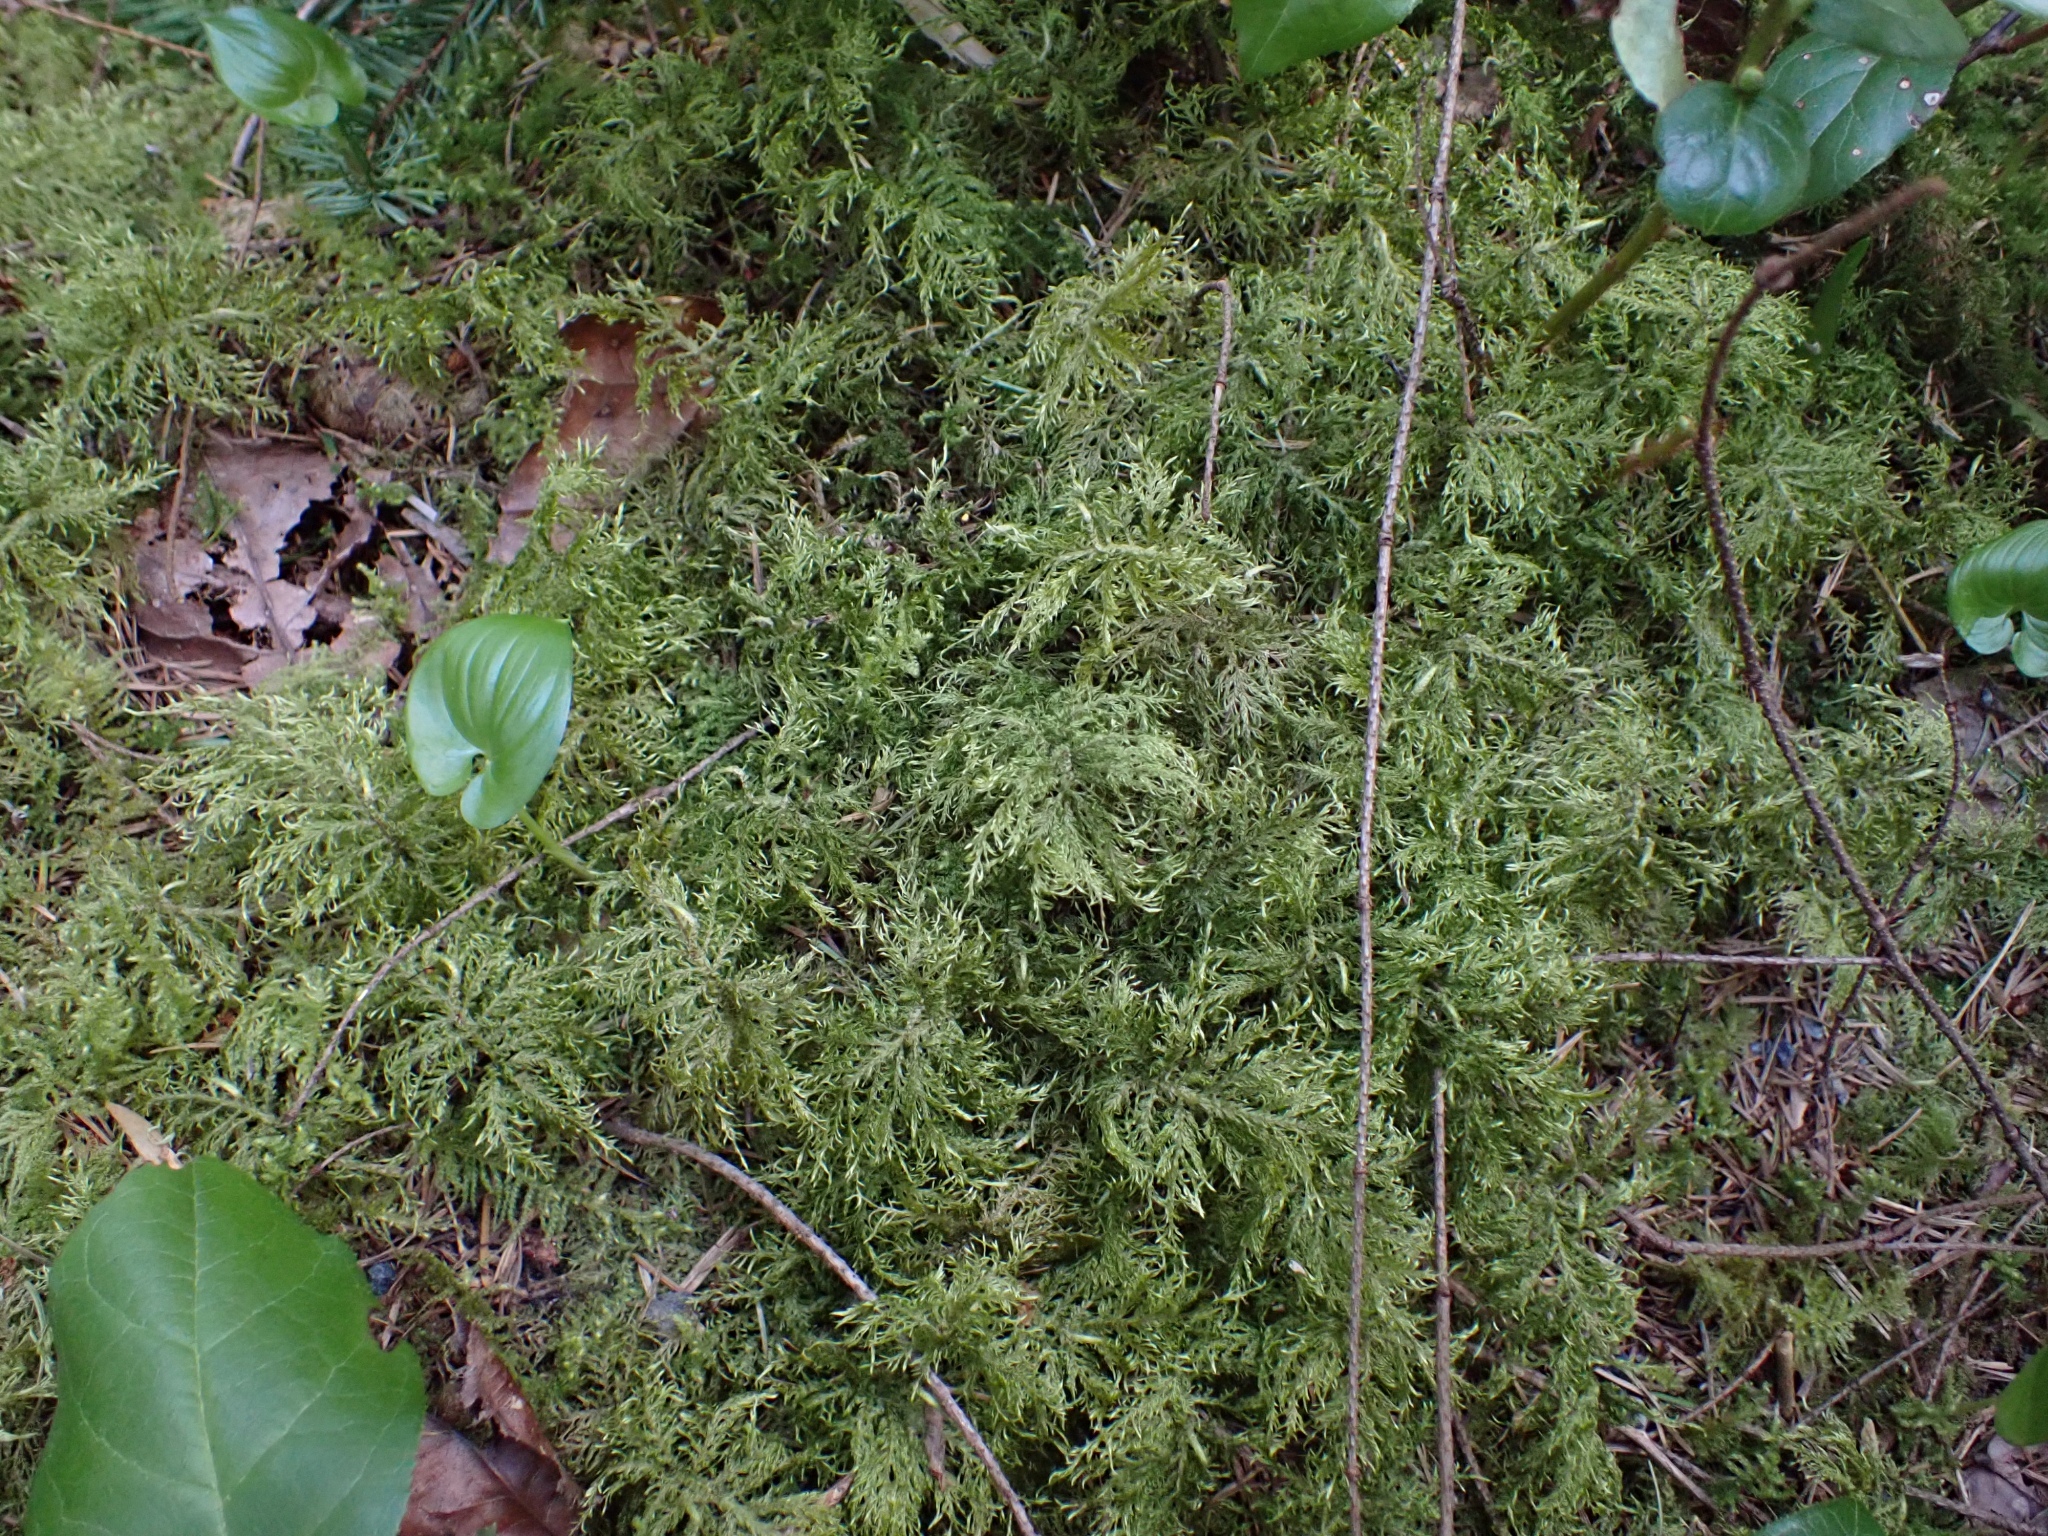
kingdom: Plantae
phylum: Bryophyta
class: Bryopsida
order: Hypnales
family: Hylocomiaceae
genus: Hylocomium
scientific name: Hylocomium splendens
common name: Stairstep moss
